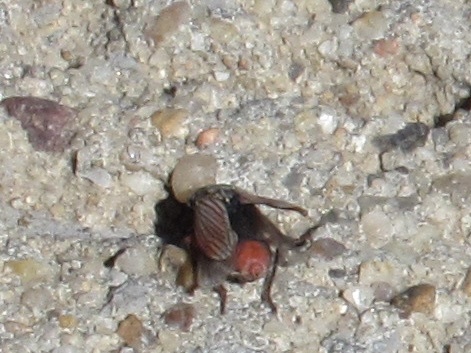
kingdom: Animalia
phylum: Arthropoda
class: Insecta
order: Hemiptera
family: Cicadellidae
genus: Cuerna
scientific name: Cuerna costalis
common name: Lateral-lined sharpshooter
